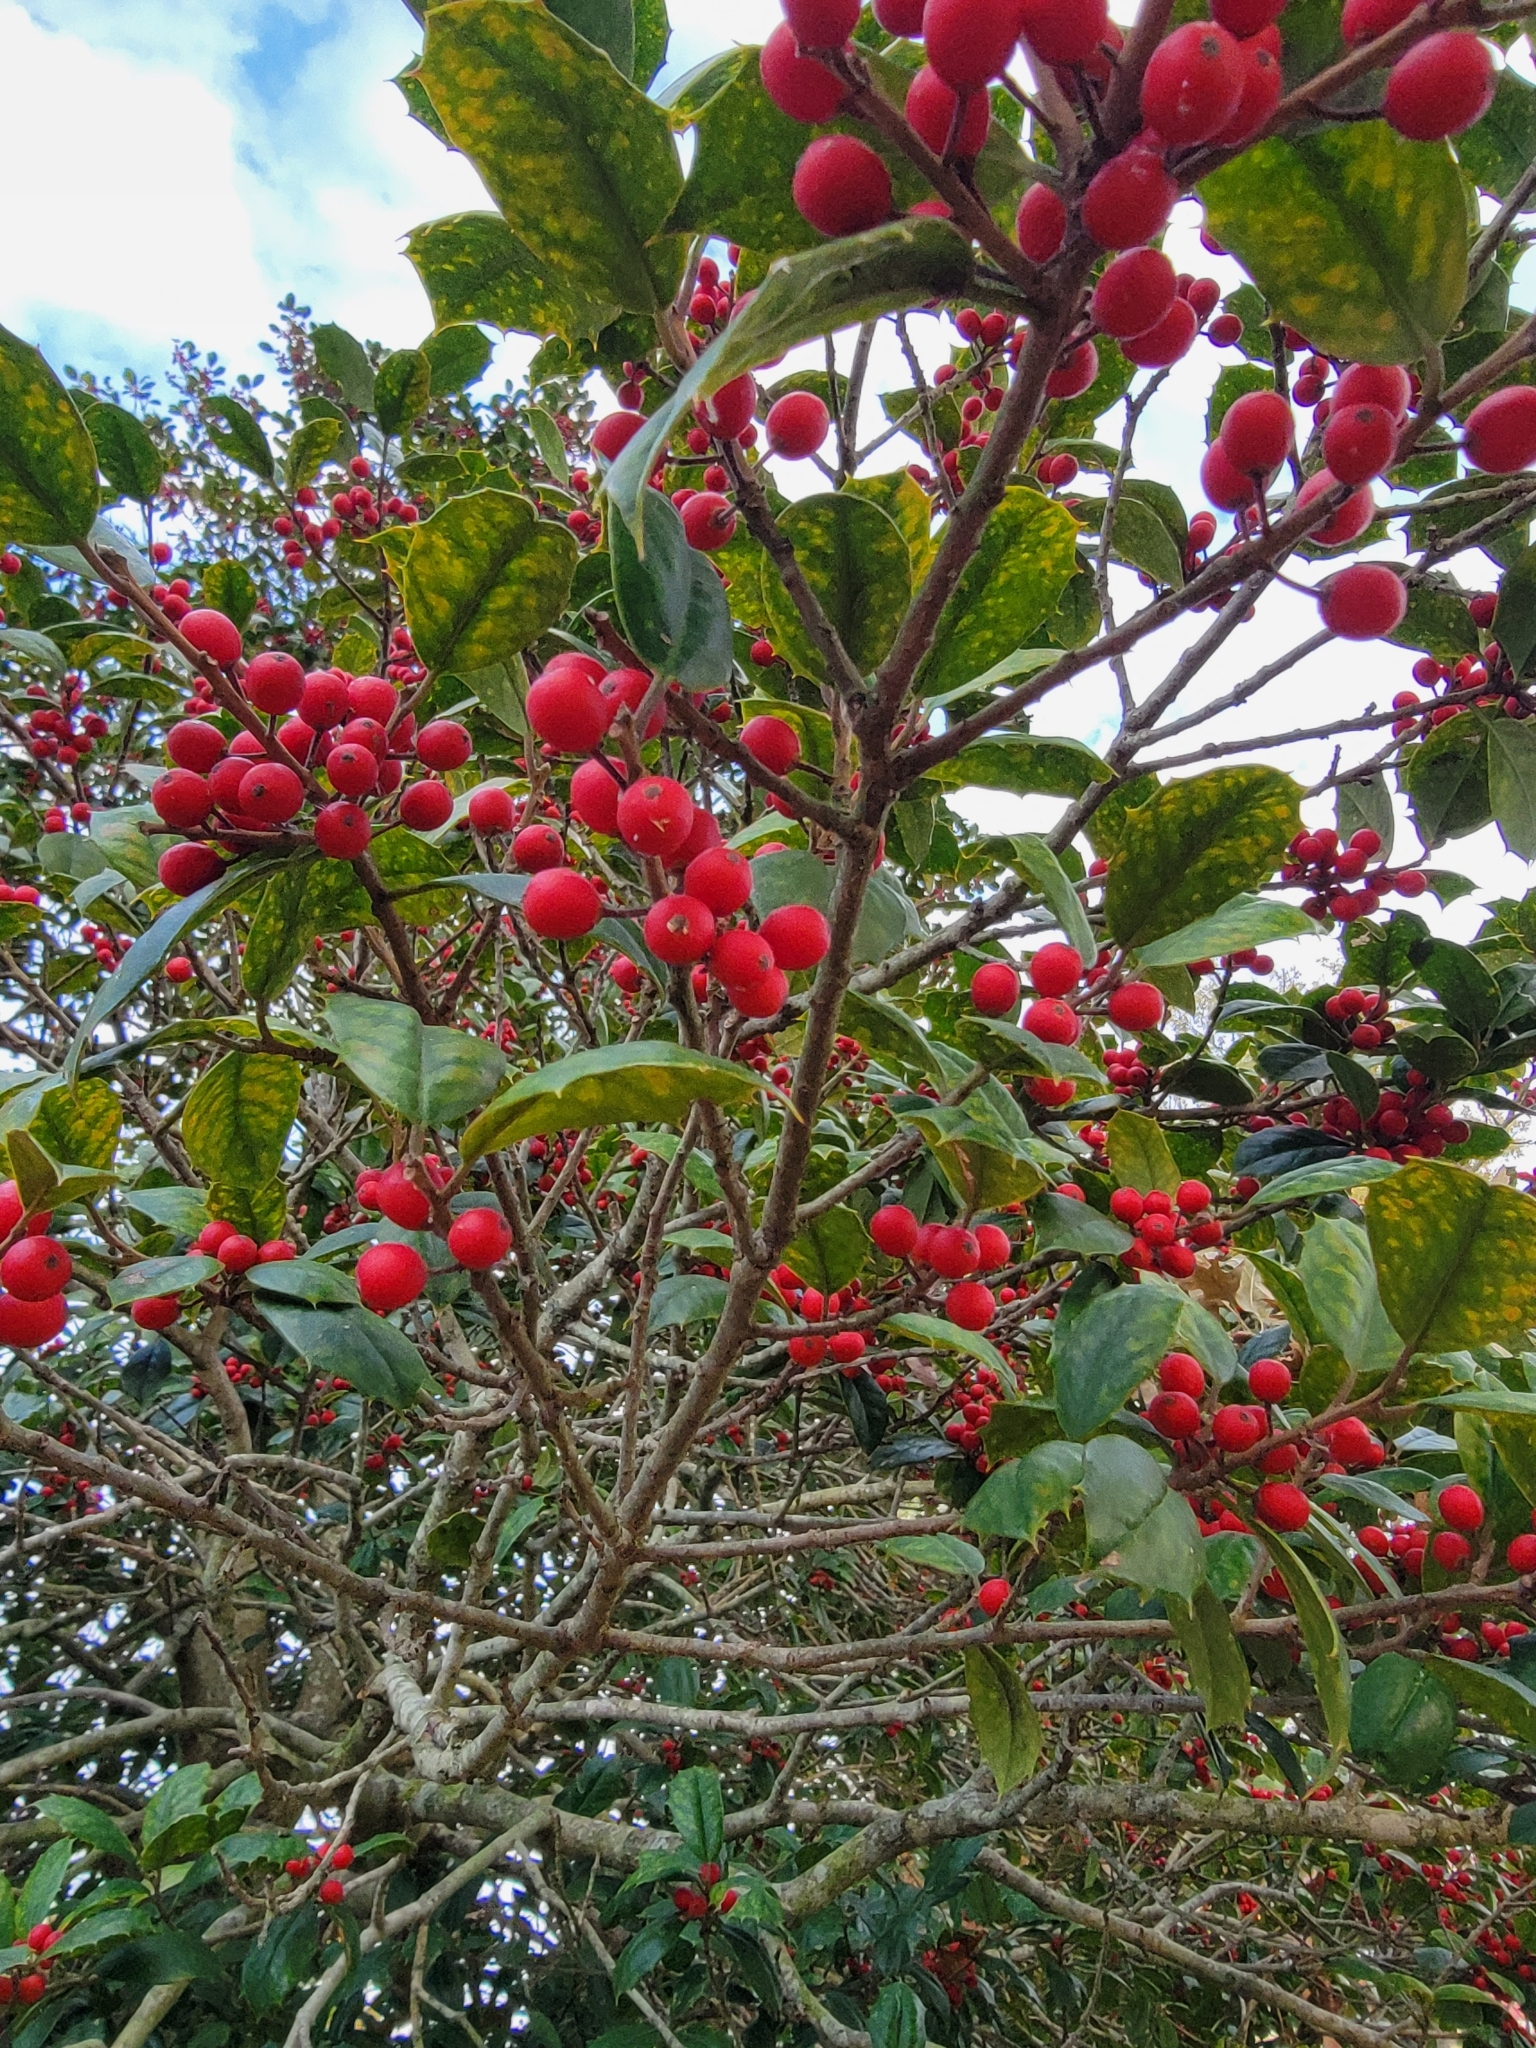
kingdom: Plantae
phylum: Tracheophyta
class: Magnoliopsida
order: Aquifoliales
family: Aquifoliaceae
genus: Ilex
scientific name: Ilex opaca
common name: American holly
